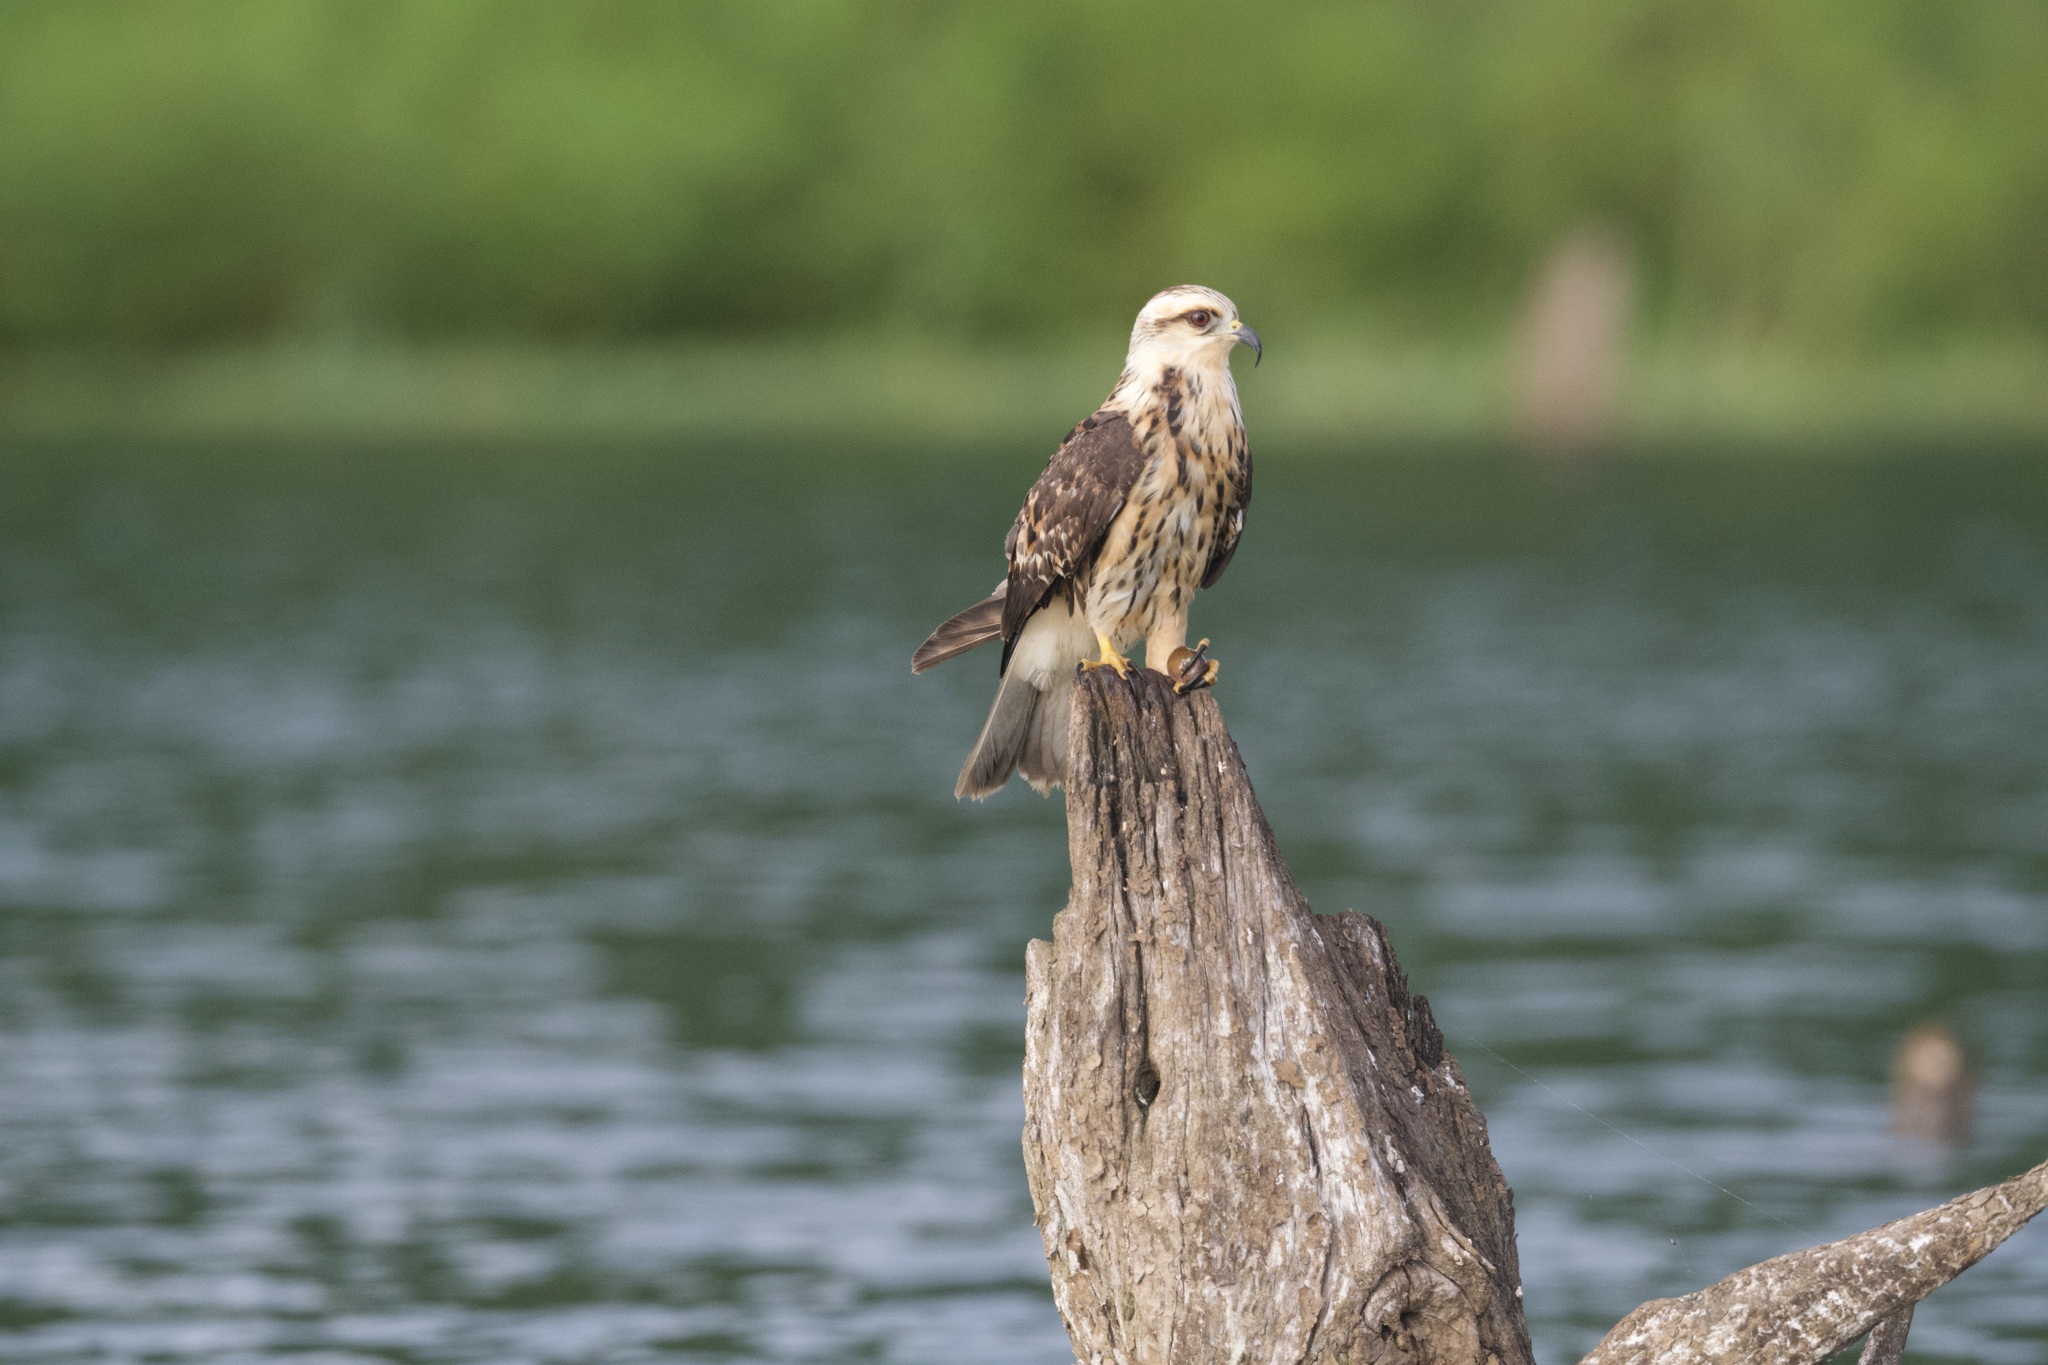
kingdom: Animalia
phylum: Chordata
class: Aves
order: Accipitriformes
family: Accipitridae
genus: Rostrhamus
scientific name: Rostrhamus sociabilis
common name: Snail kite
